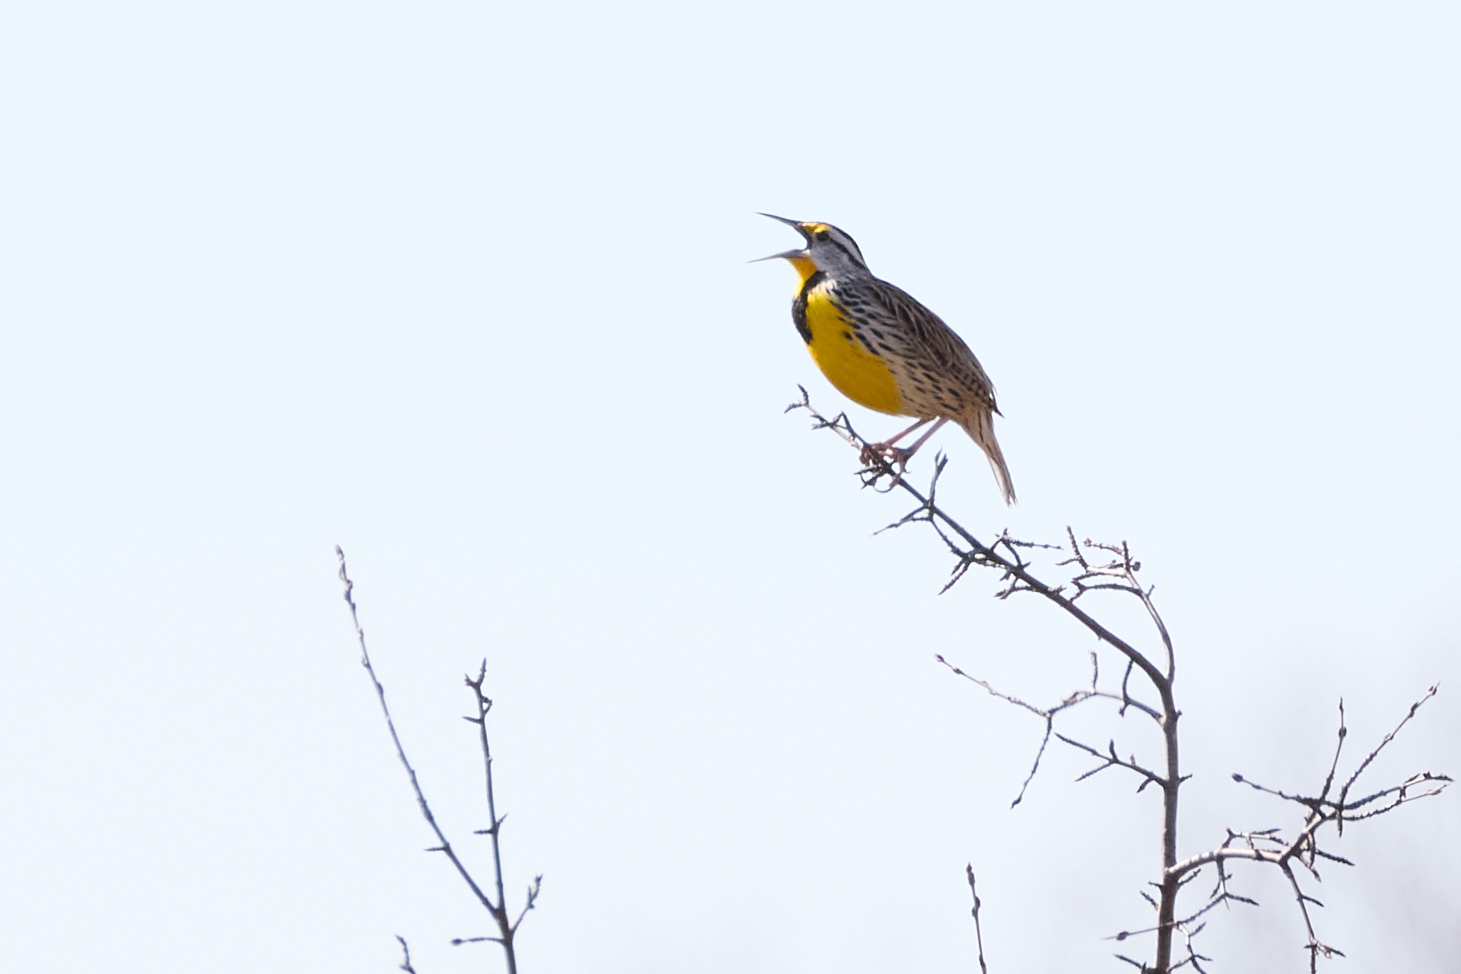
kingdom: Animalia
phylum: Chordata
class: Aves
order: Passeriformes
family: Icteridae
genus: Sturnella
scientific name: Sturnella magna
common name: Eastern meadowlark
